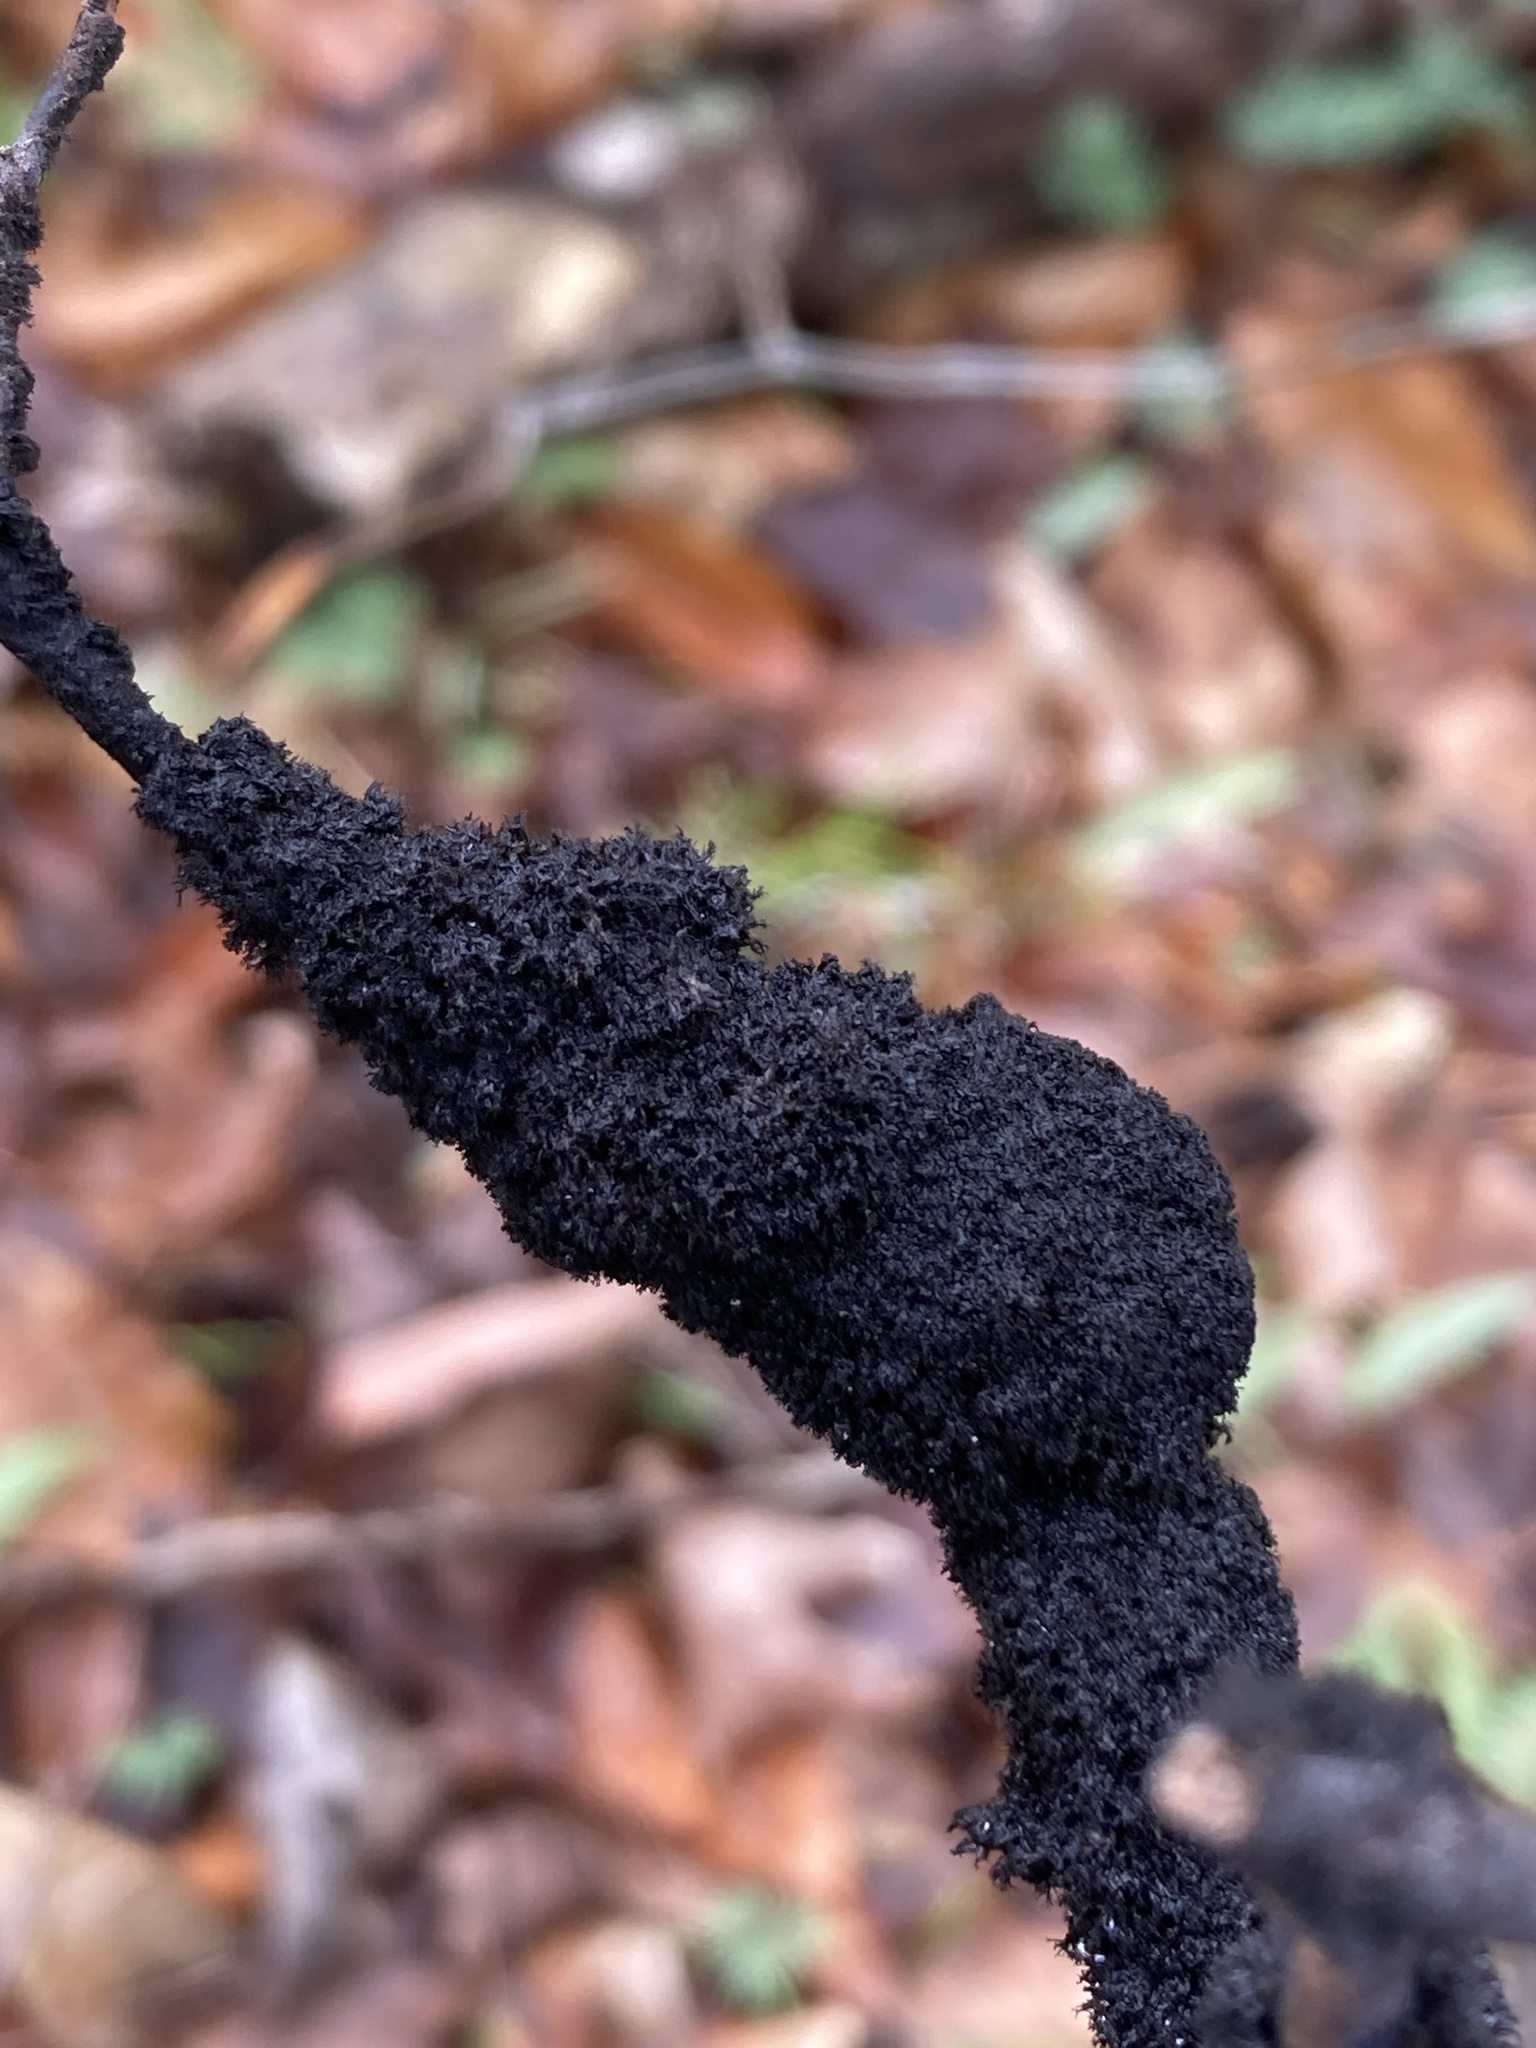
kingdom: Fungi
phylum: Ascomycota
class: Dothideomycetes
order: Capnodiales
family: Capnodiaceae
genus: Scorias
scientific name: Scorias spongiosa
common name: Black sooty mold
